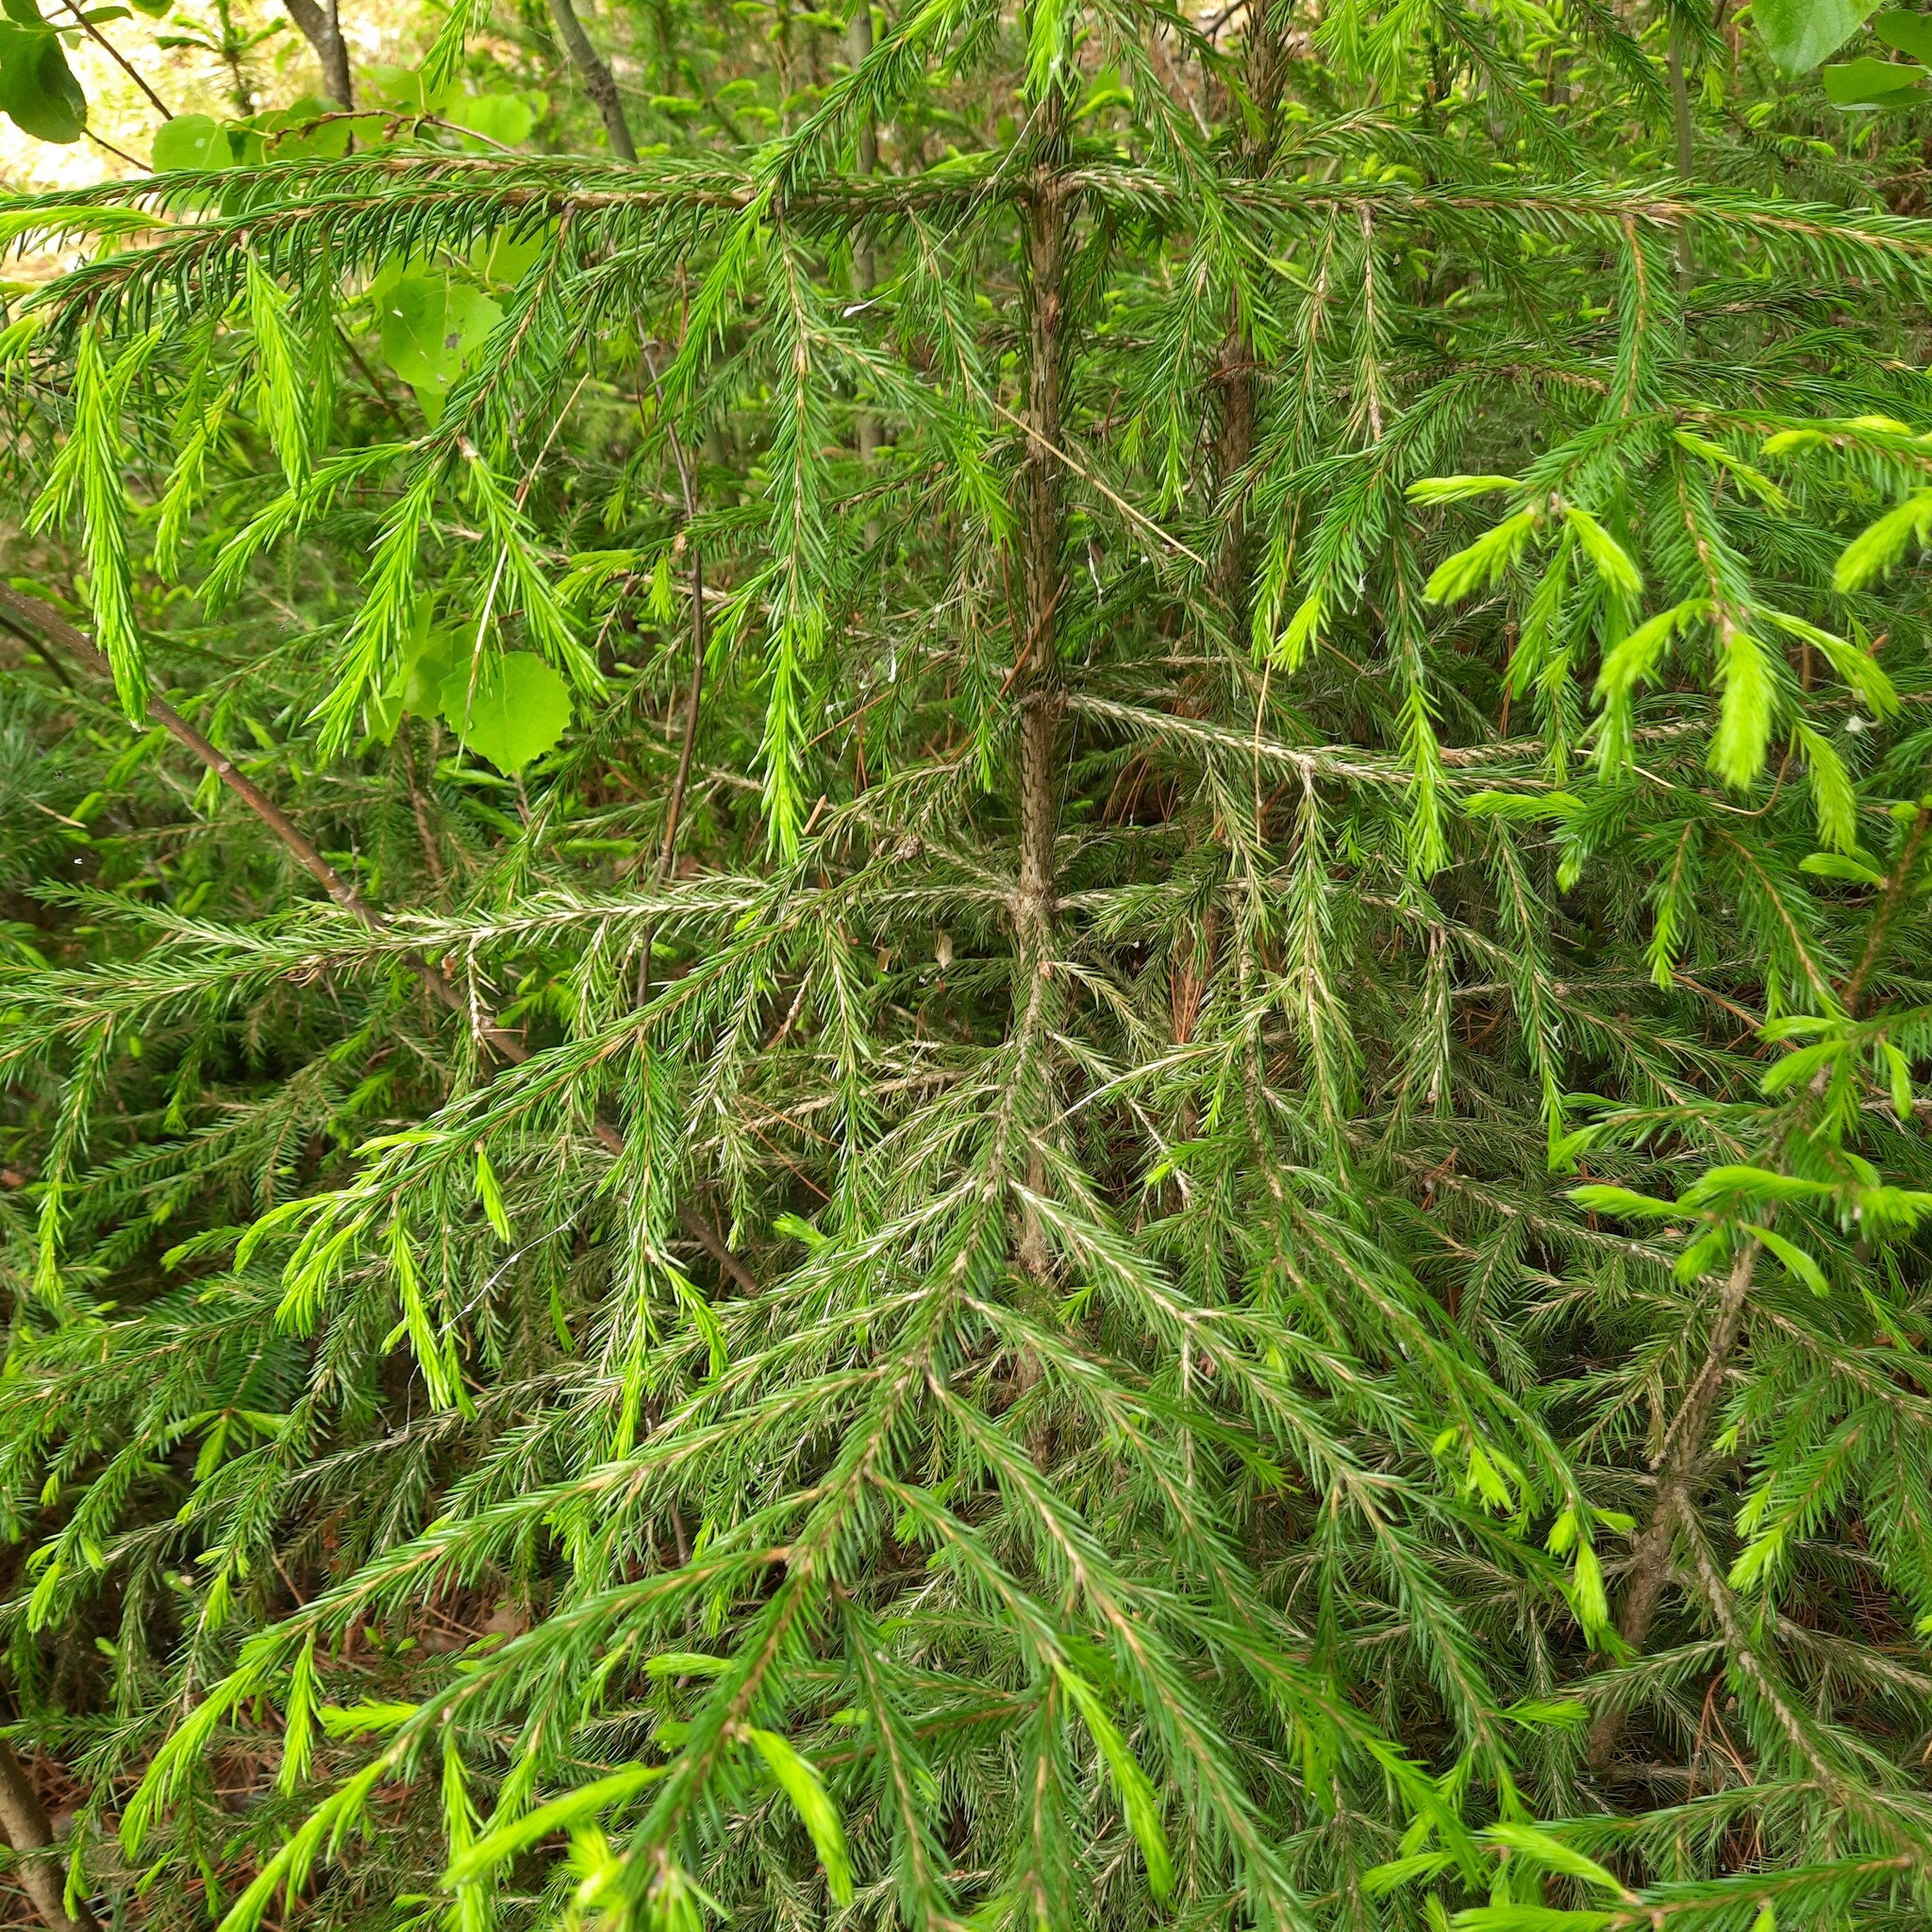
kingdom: Plantae
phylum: Tracheophyta
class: Pinopsida
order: Pinales
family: Pinaceae
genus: Picea
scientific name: Picea obovata
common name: Siberian spruce
